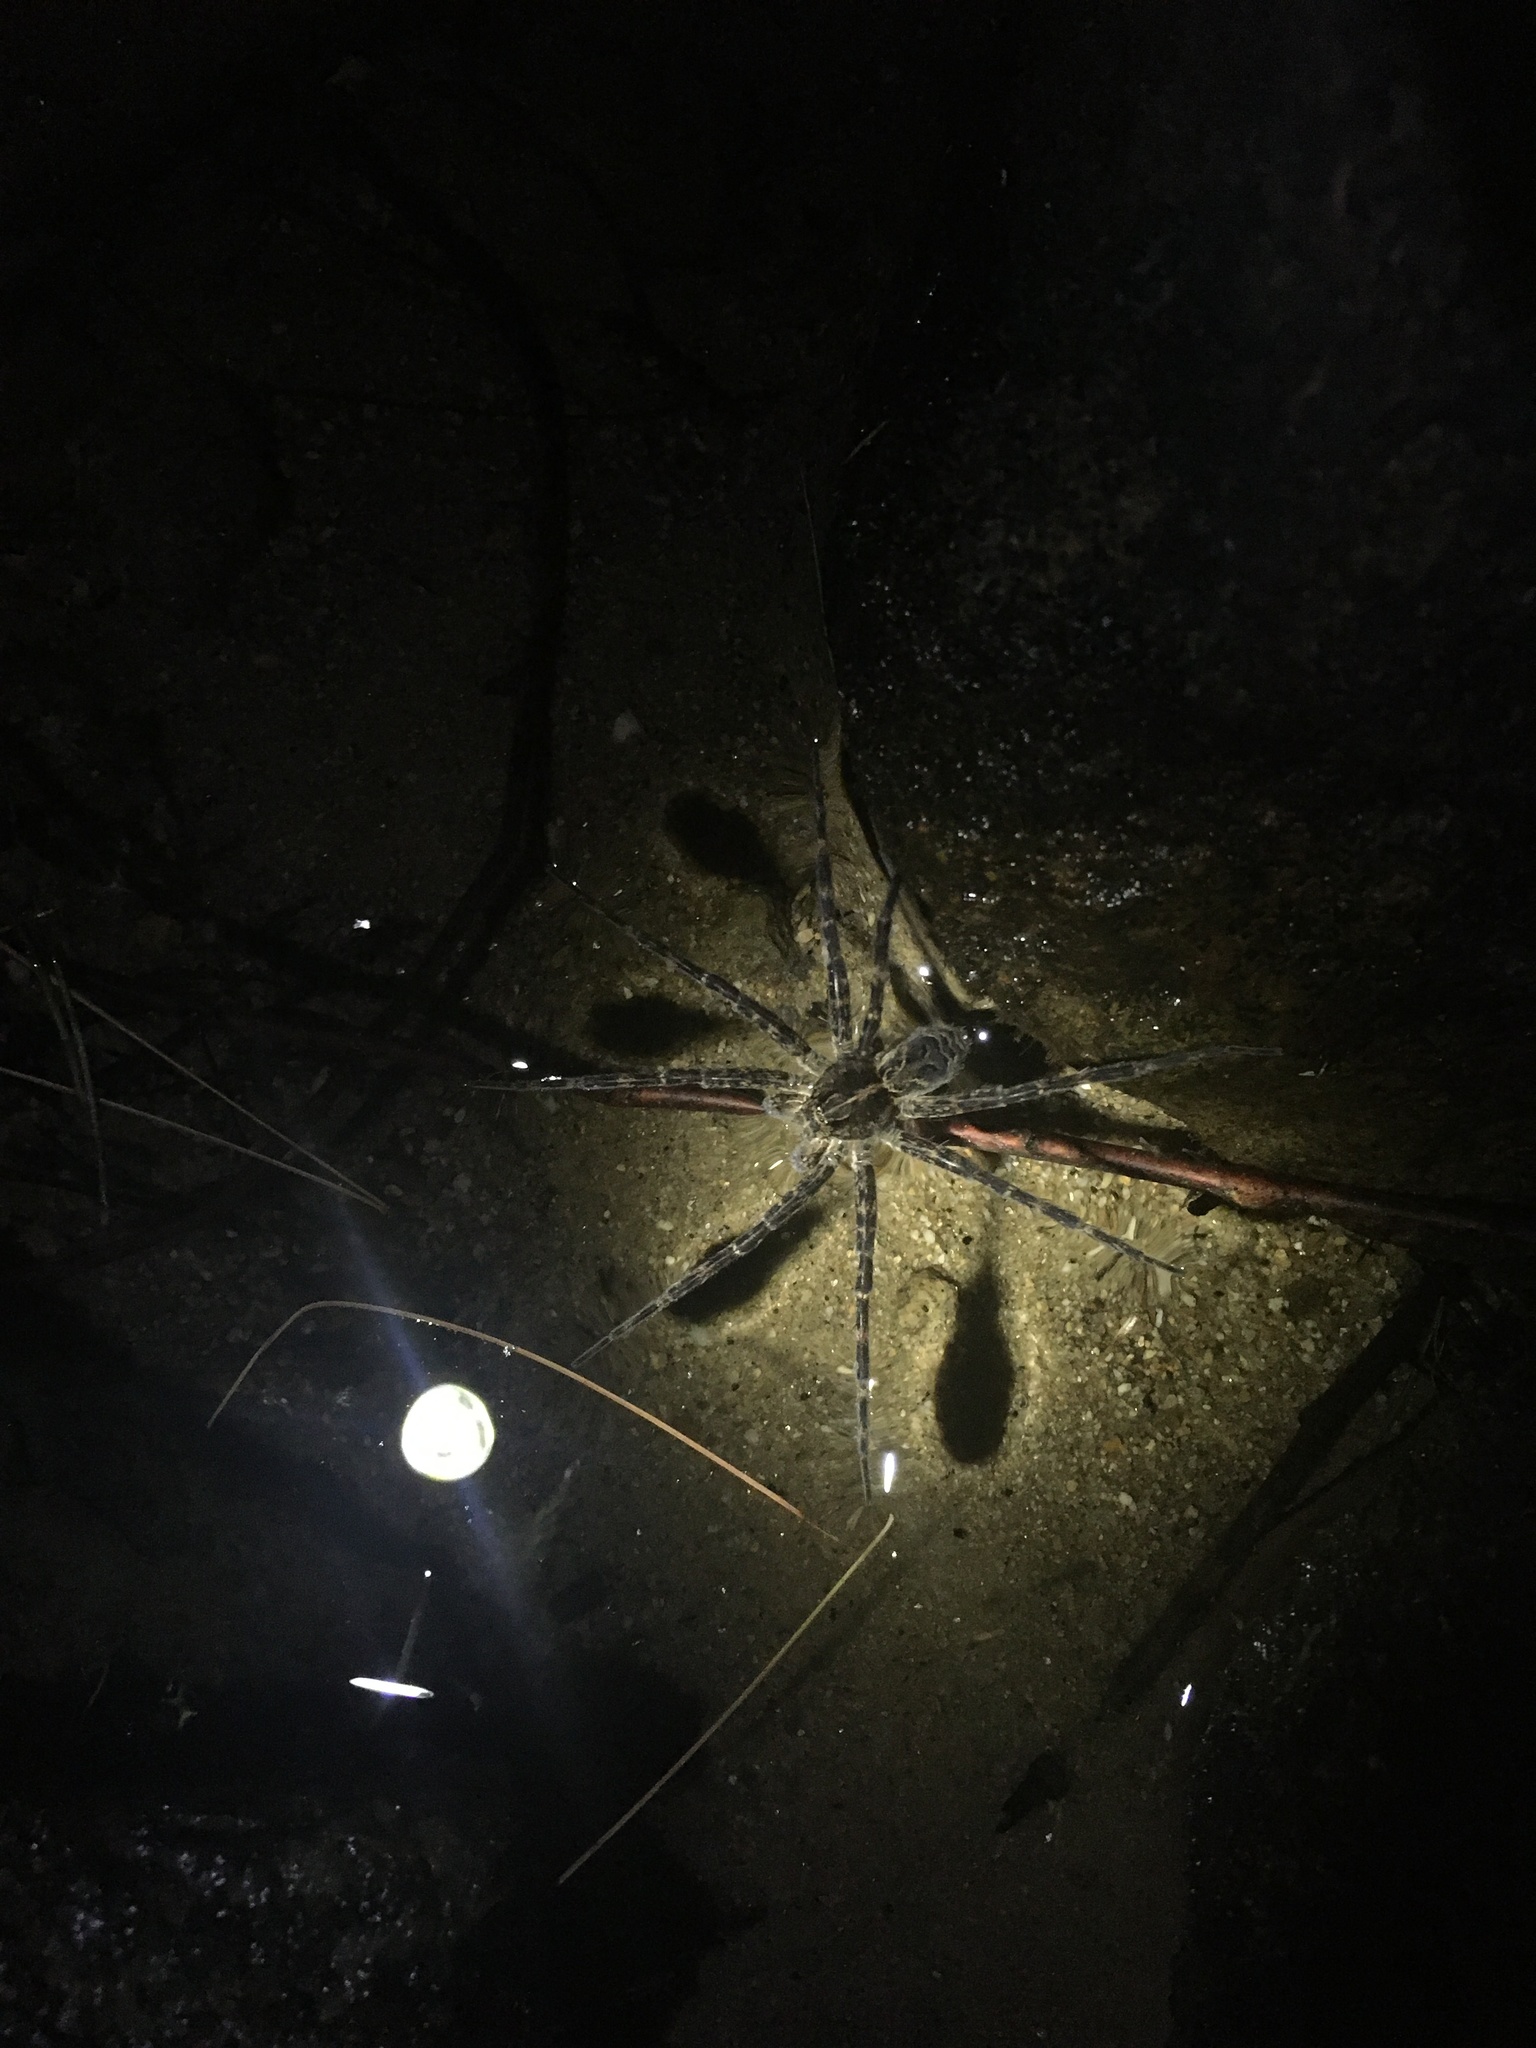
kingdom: Animalia
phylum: Arthropoda
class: Arachnida
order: Araneae
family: Pisauridae
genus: Dolomedes
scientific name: Dolomedes scriptus
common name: Striped fishing spider
